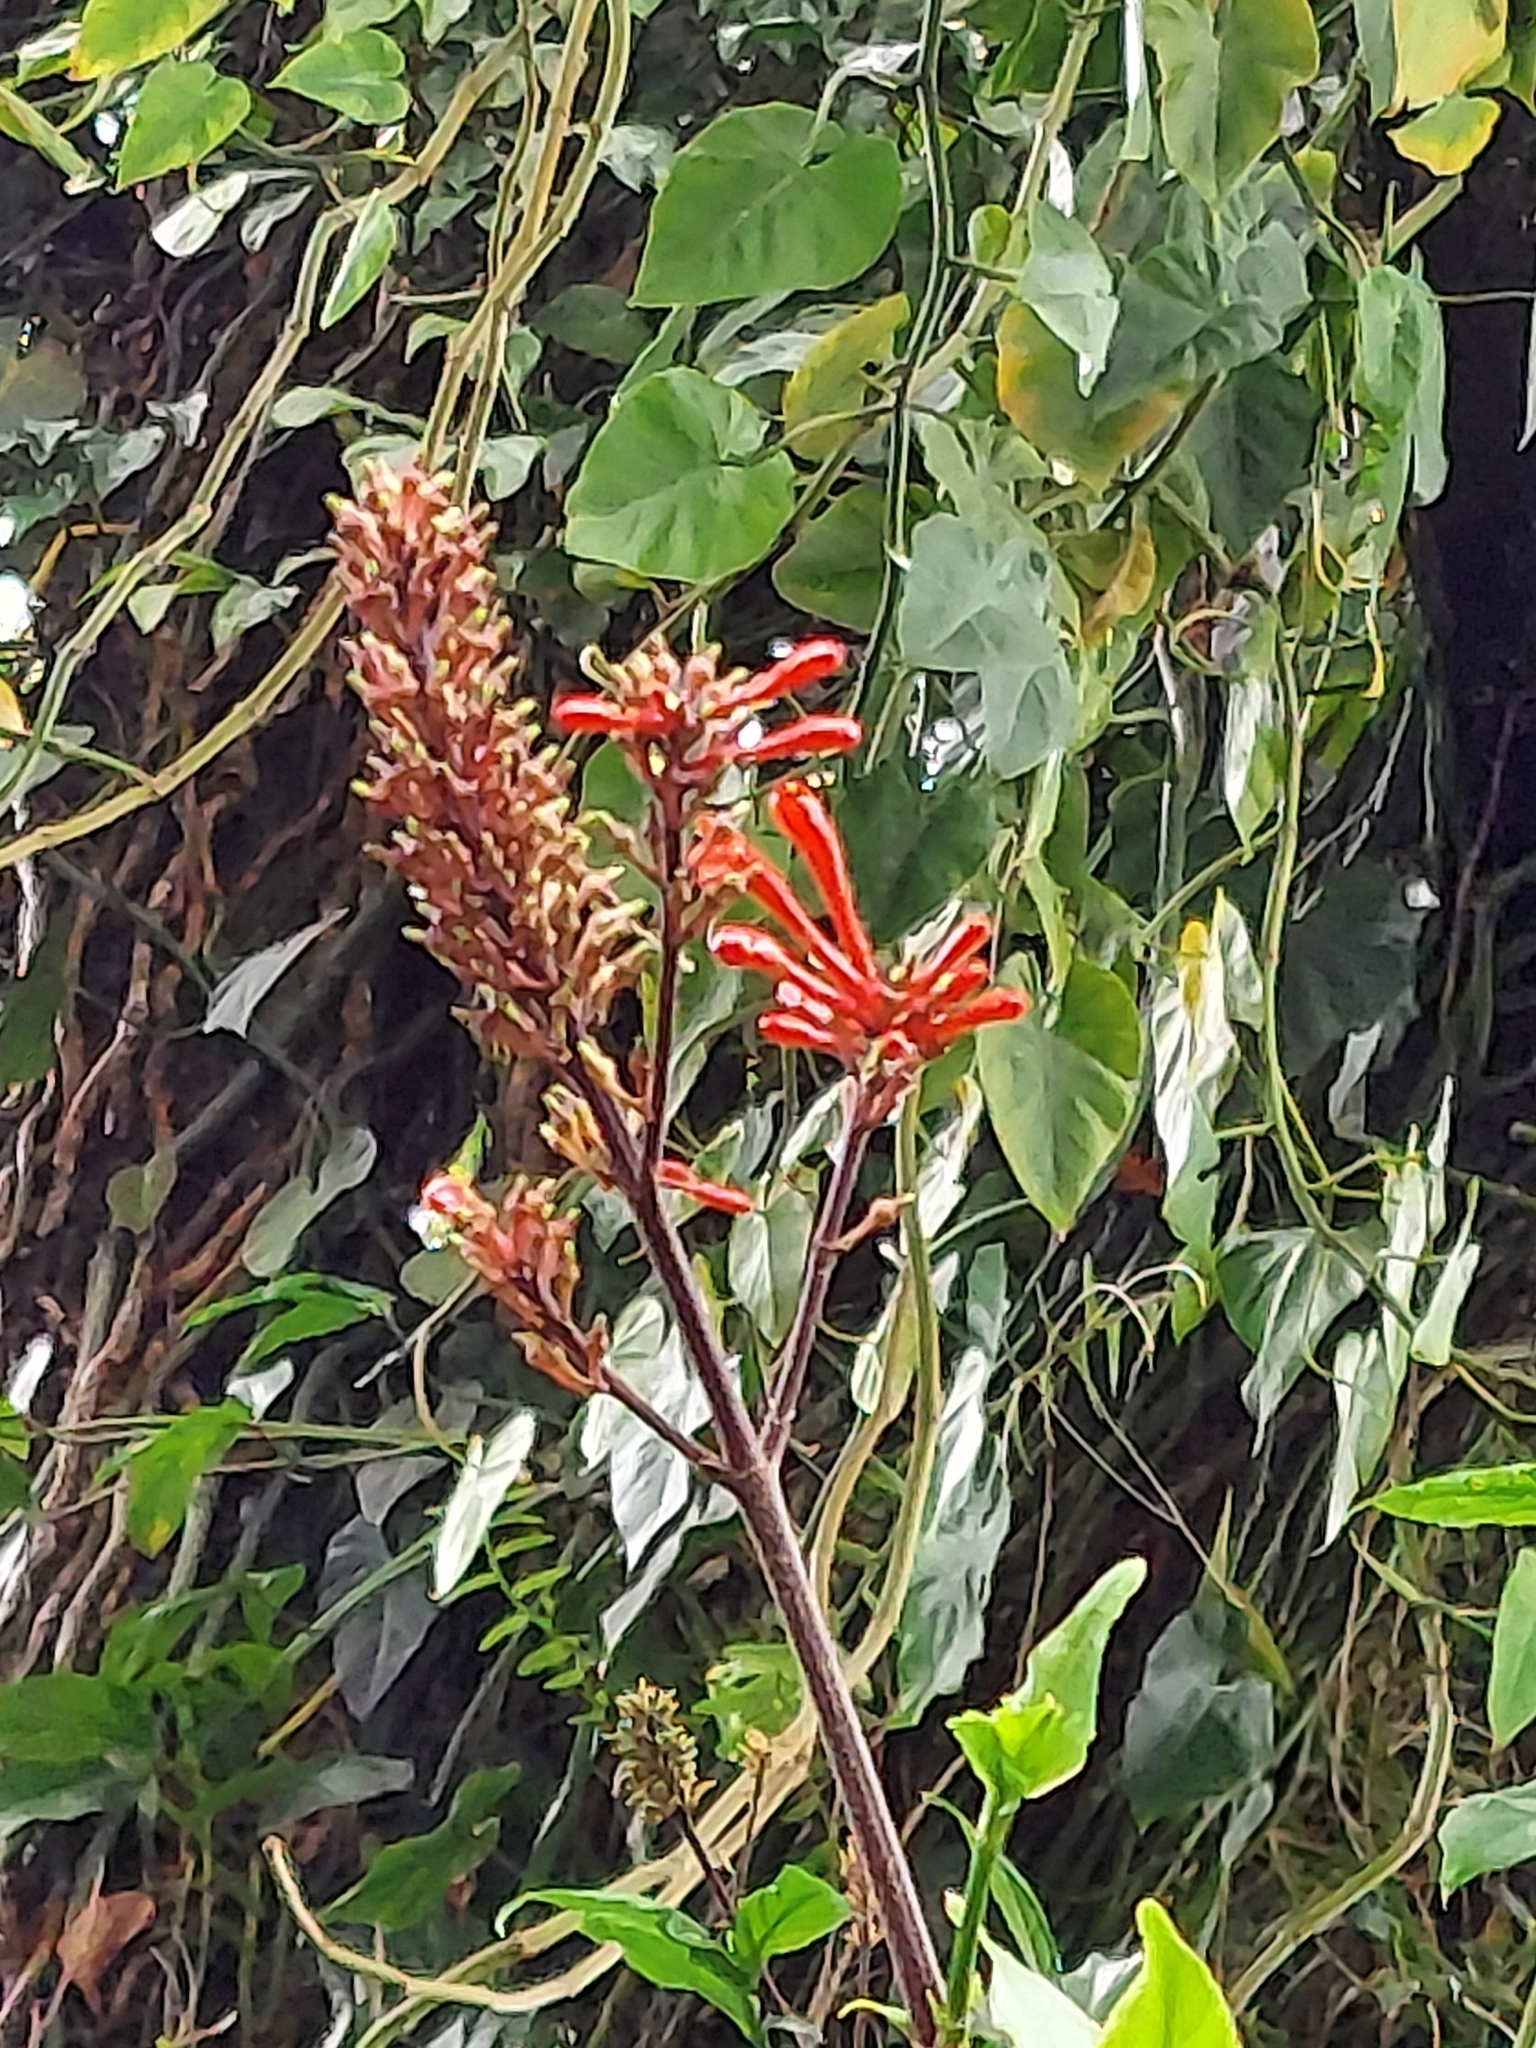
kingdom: Plantae
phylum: Tracheophyta
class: Magnoliopsida
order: Lamiales
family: Acanthaceae
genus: Odontonema
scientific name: Odontonema cuspidatum
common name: Mottled toothedthread
